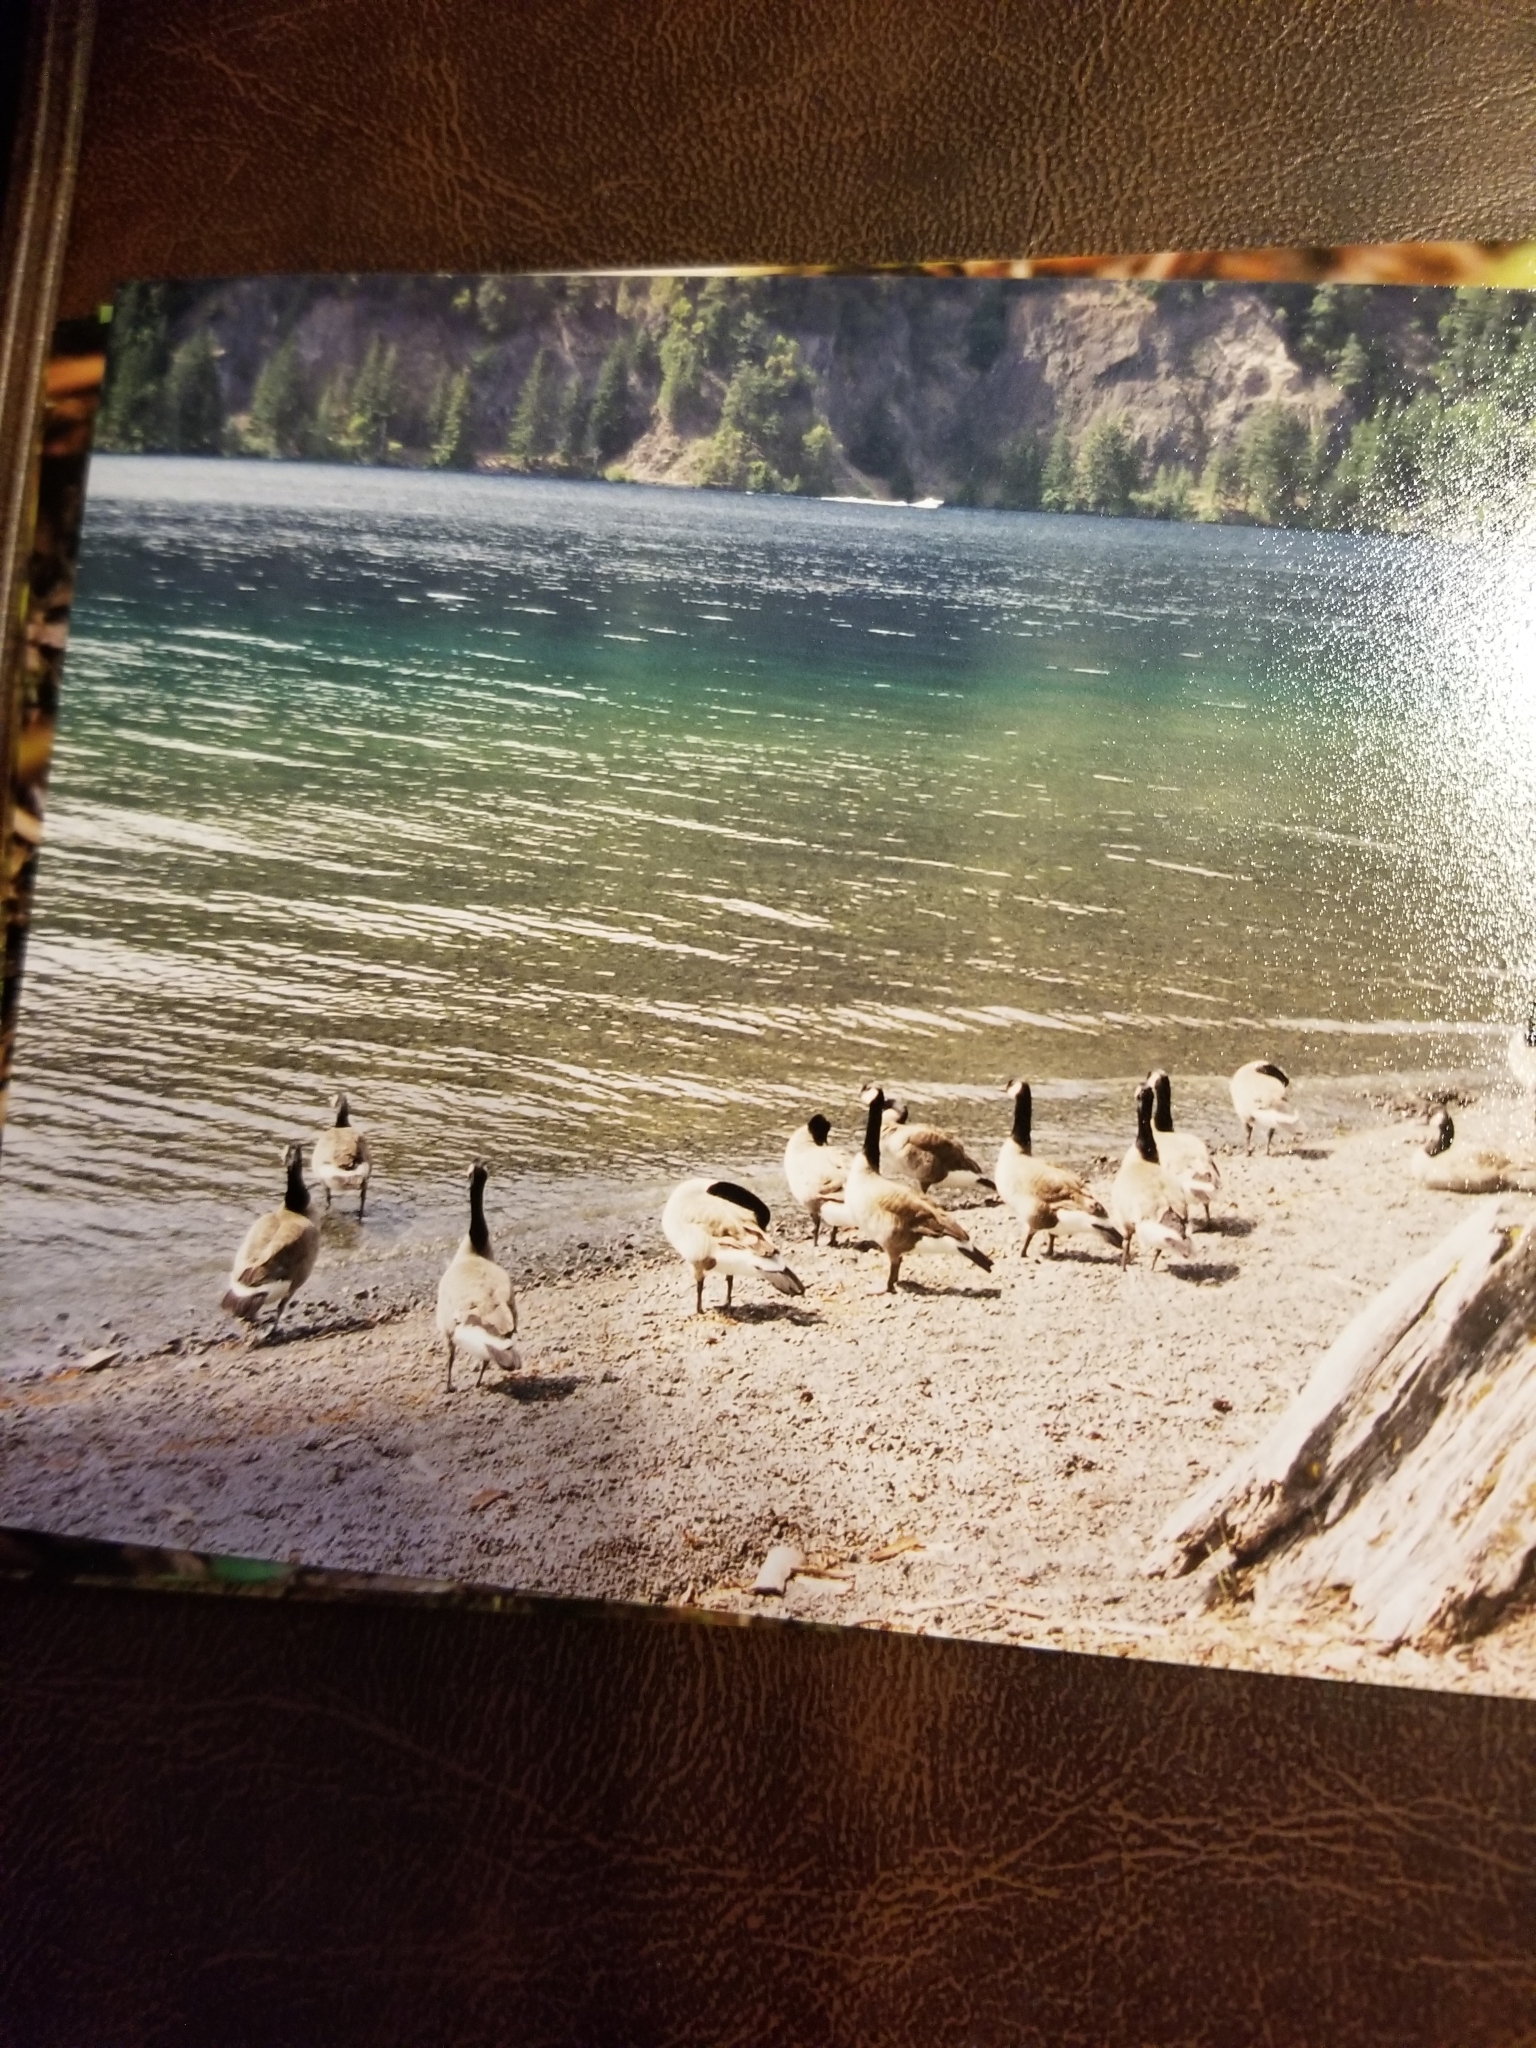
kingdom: Animalia
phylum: Chordata
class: Aves
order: Anseriformes
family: Anatidae
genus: Branta
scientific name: Branta canadensis
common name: Canada goose
